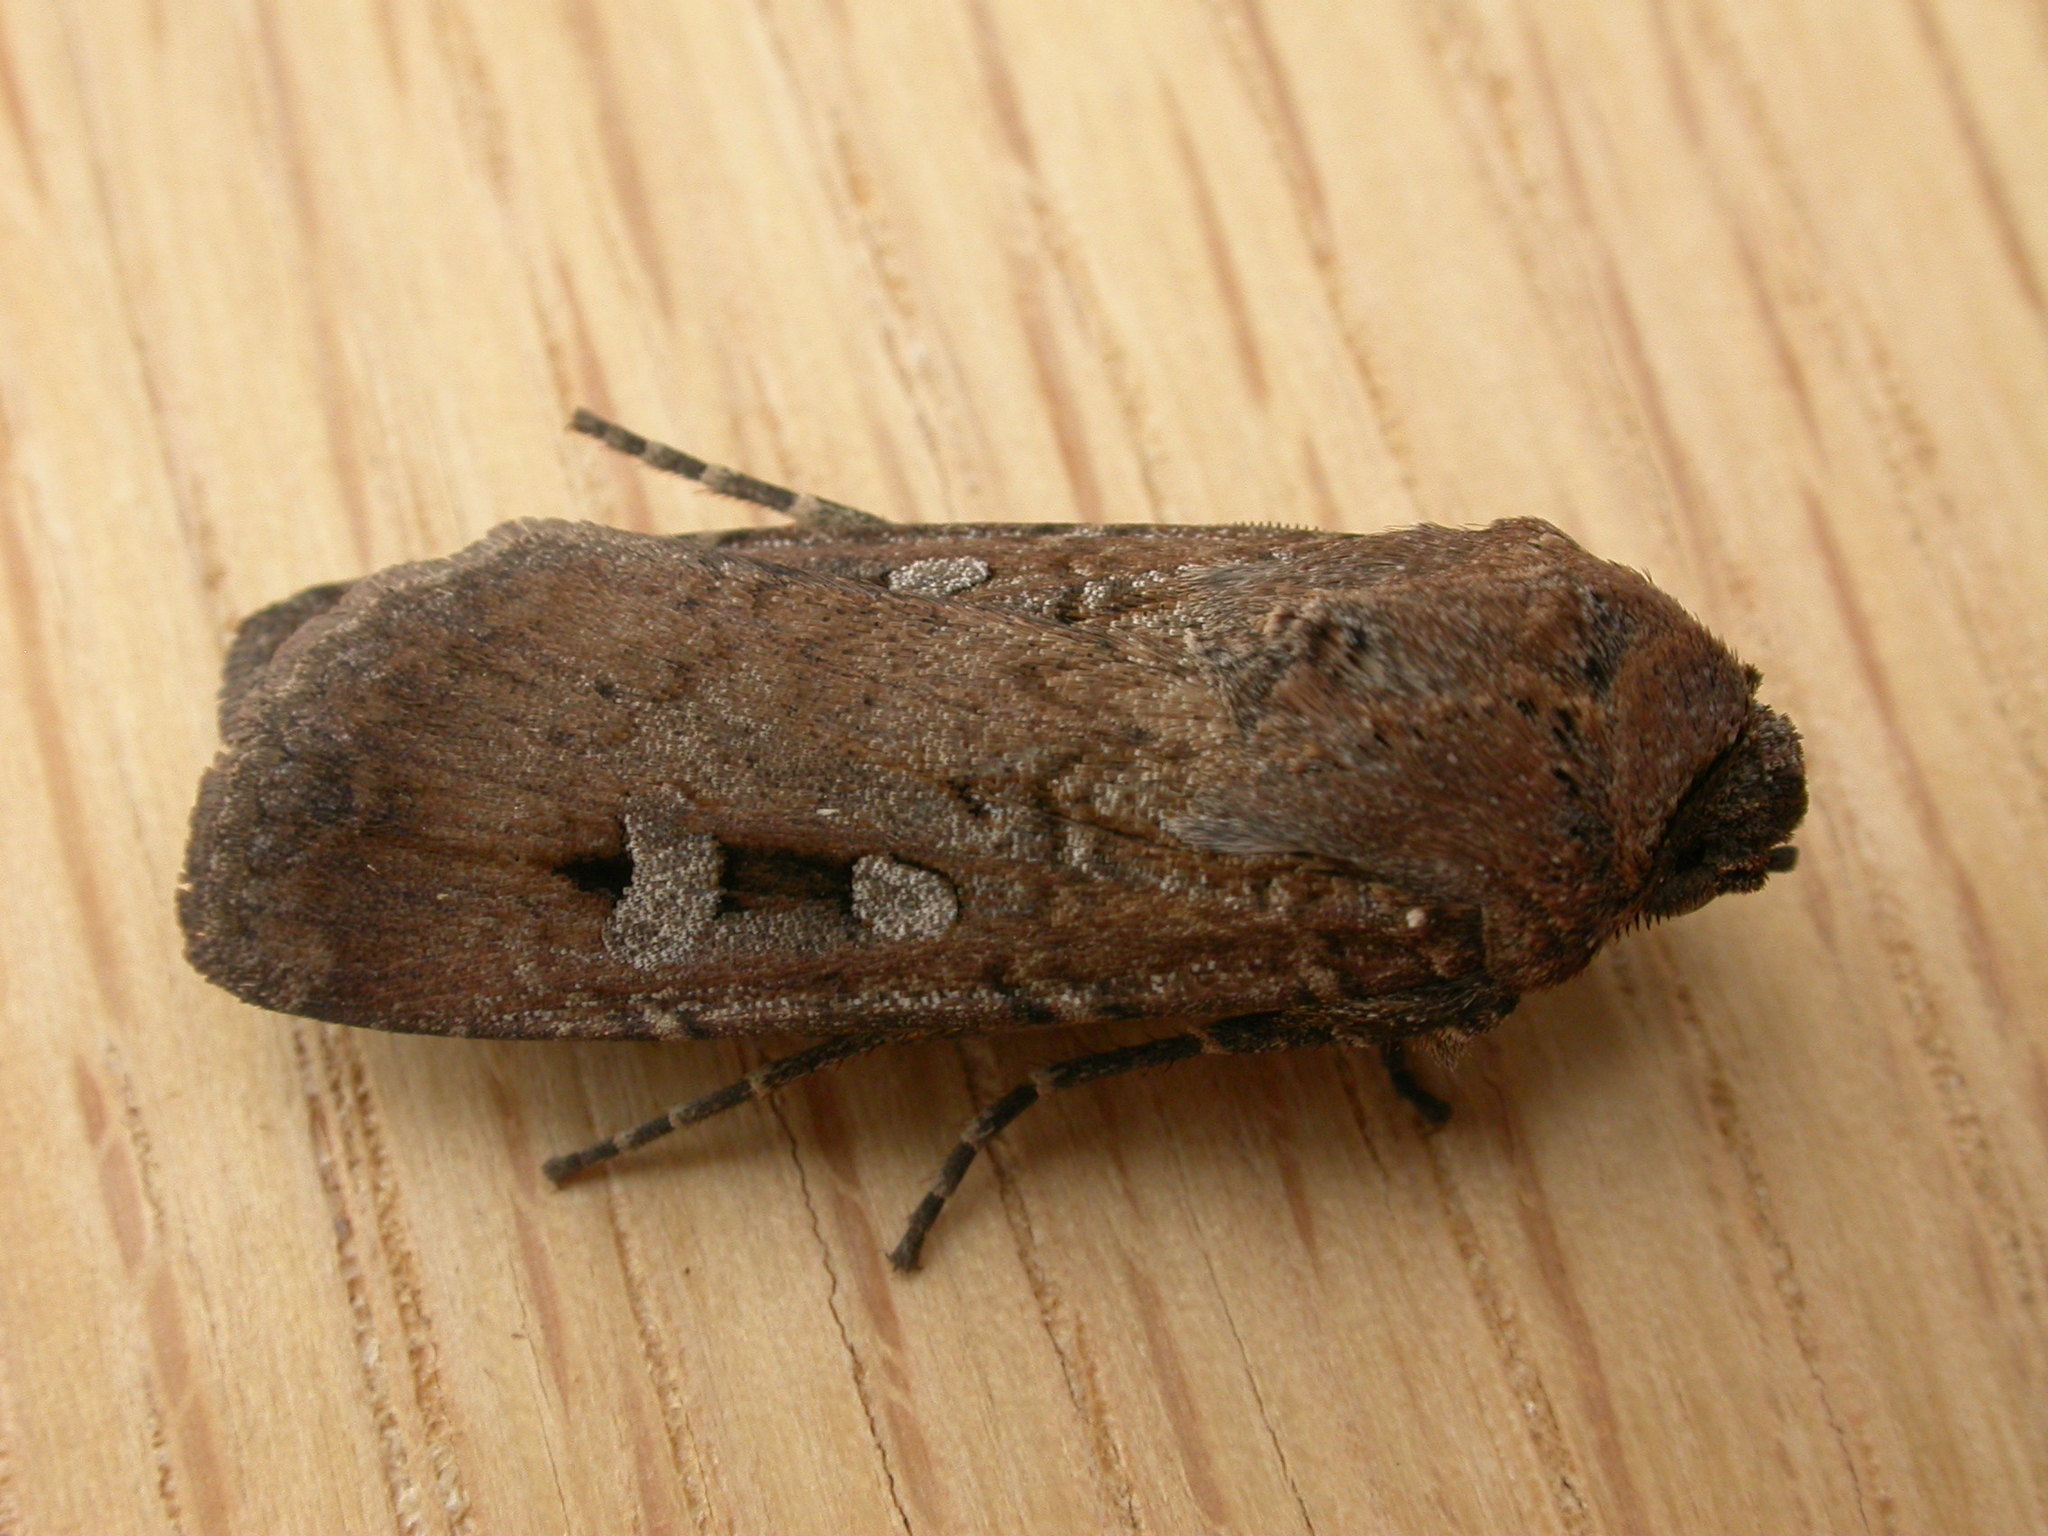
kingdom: Animalia
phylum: Arthropoda
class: Insecta
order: Lepidoptera
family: Noctuidae
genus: Agrotis
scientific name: Agrotis infusa
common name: Bogong moth
